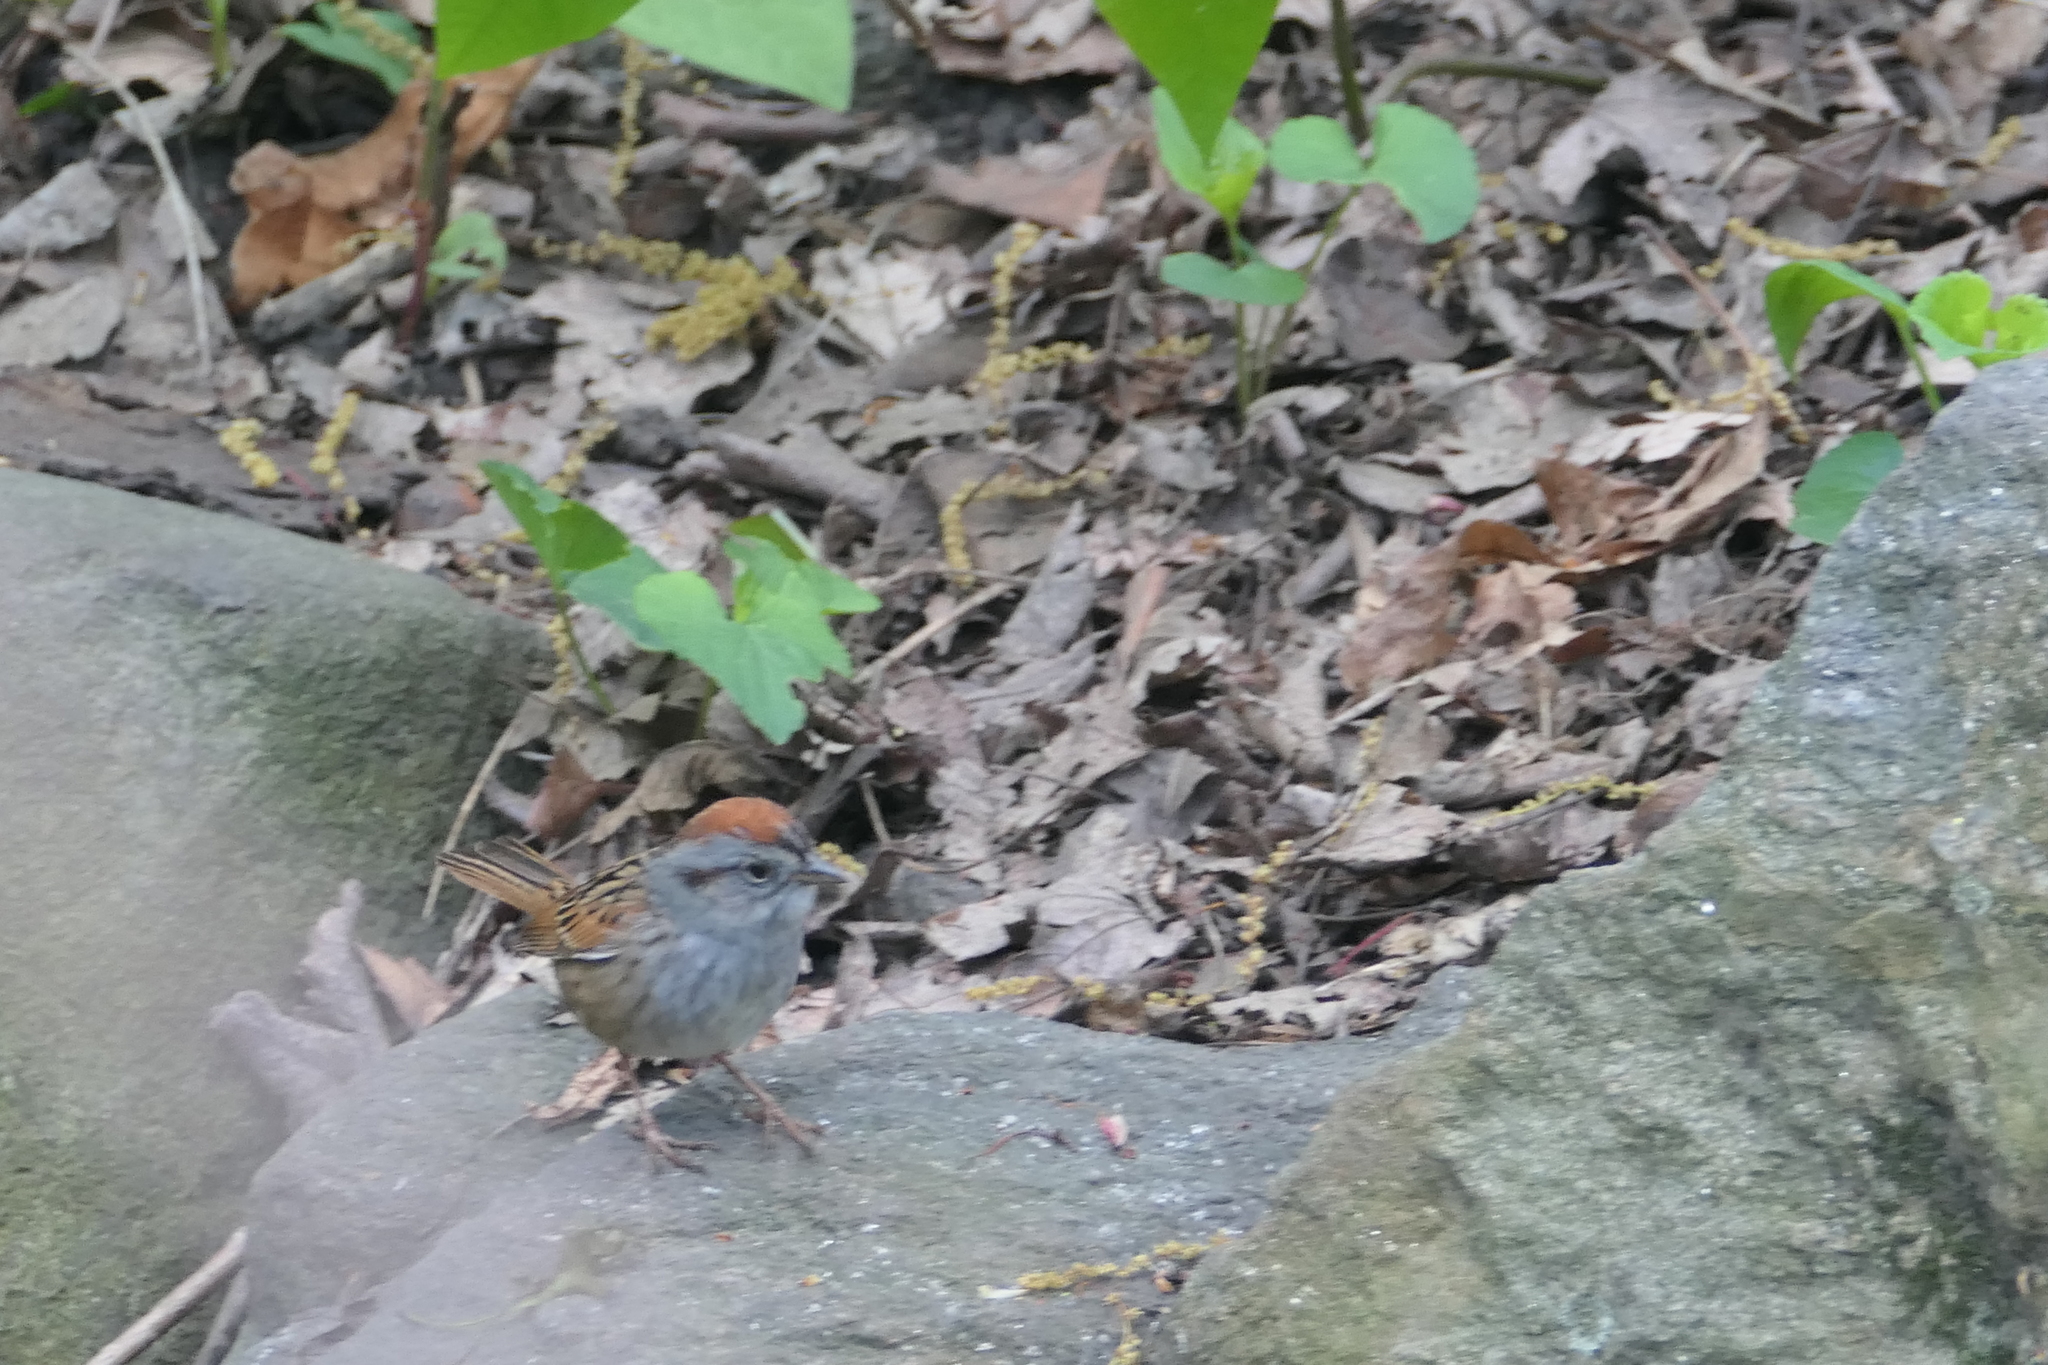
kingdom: Animalia
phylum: Chordata
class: Aves
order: Passeriformes
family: Passerellidae
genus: Melospiza
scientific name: Melospiza georgiana
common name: Swamp sparrow
